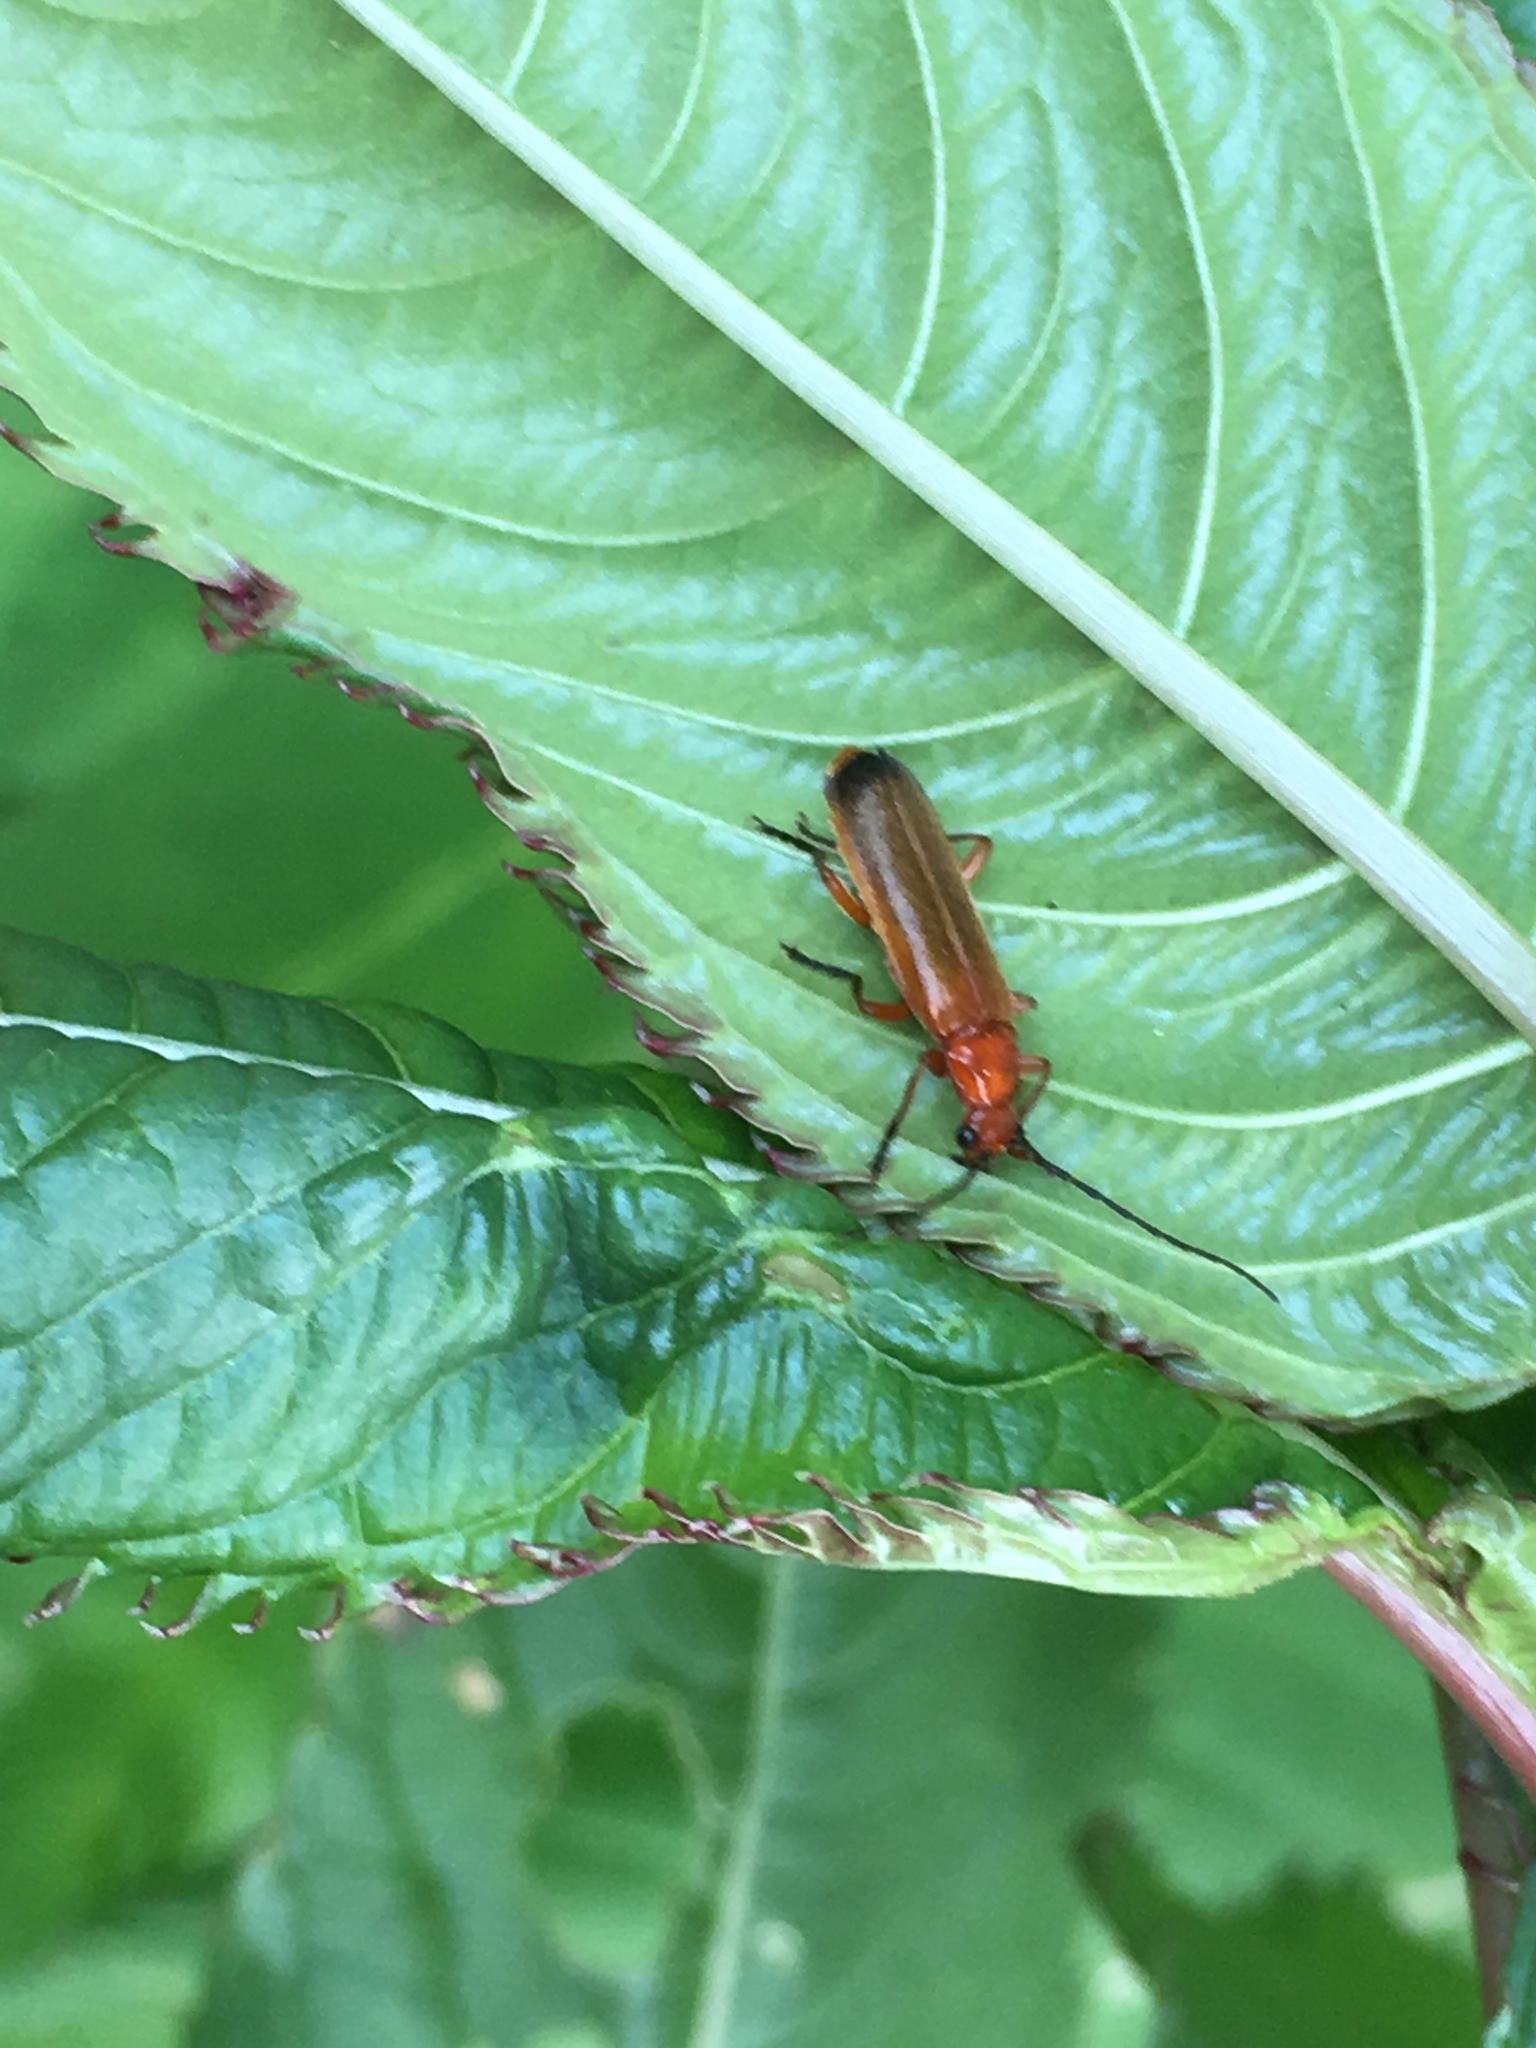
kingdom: Animalia
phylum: Arthropoda
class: Insecta
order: Coleoptera
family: Cantharidae
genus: Rhagonycha
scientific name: Rhagonycha fulva
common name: Common red soldier beetle
